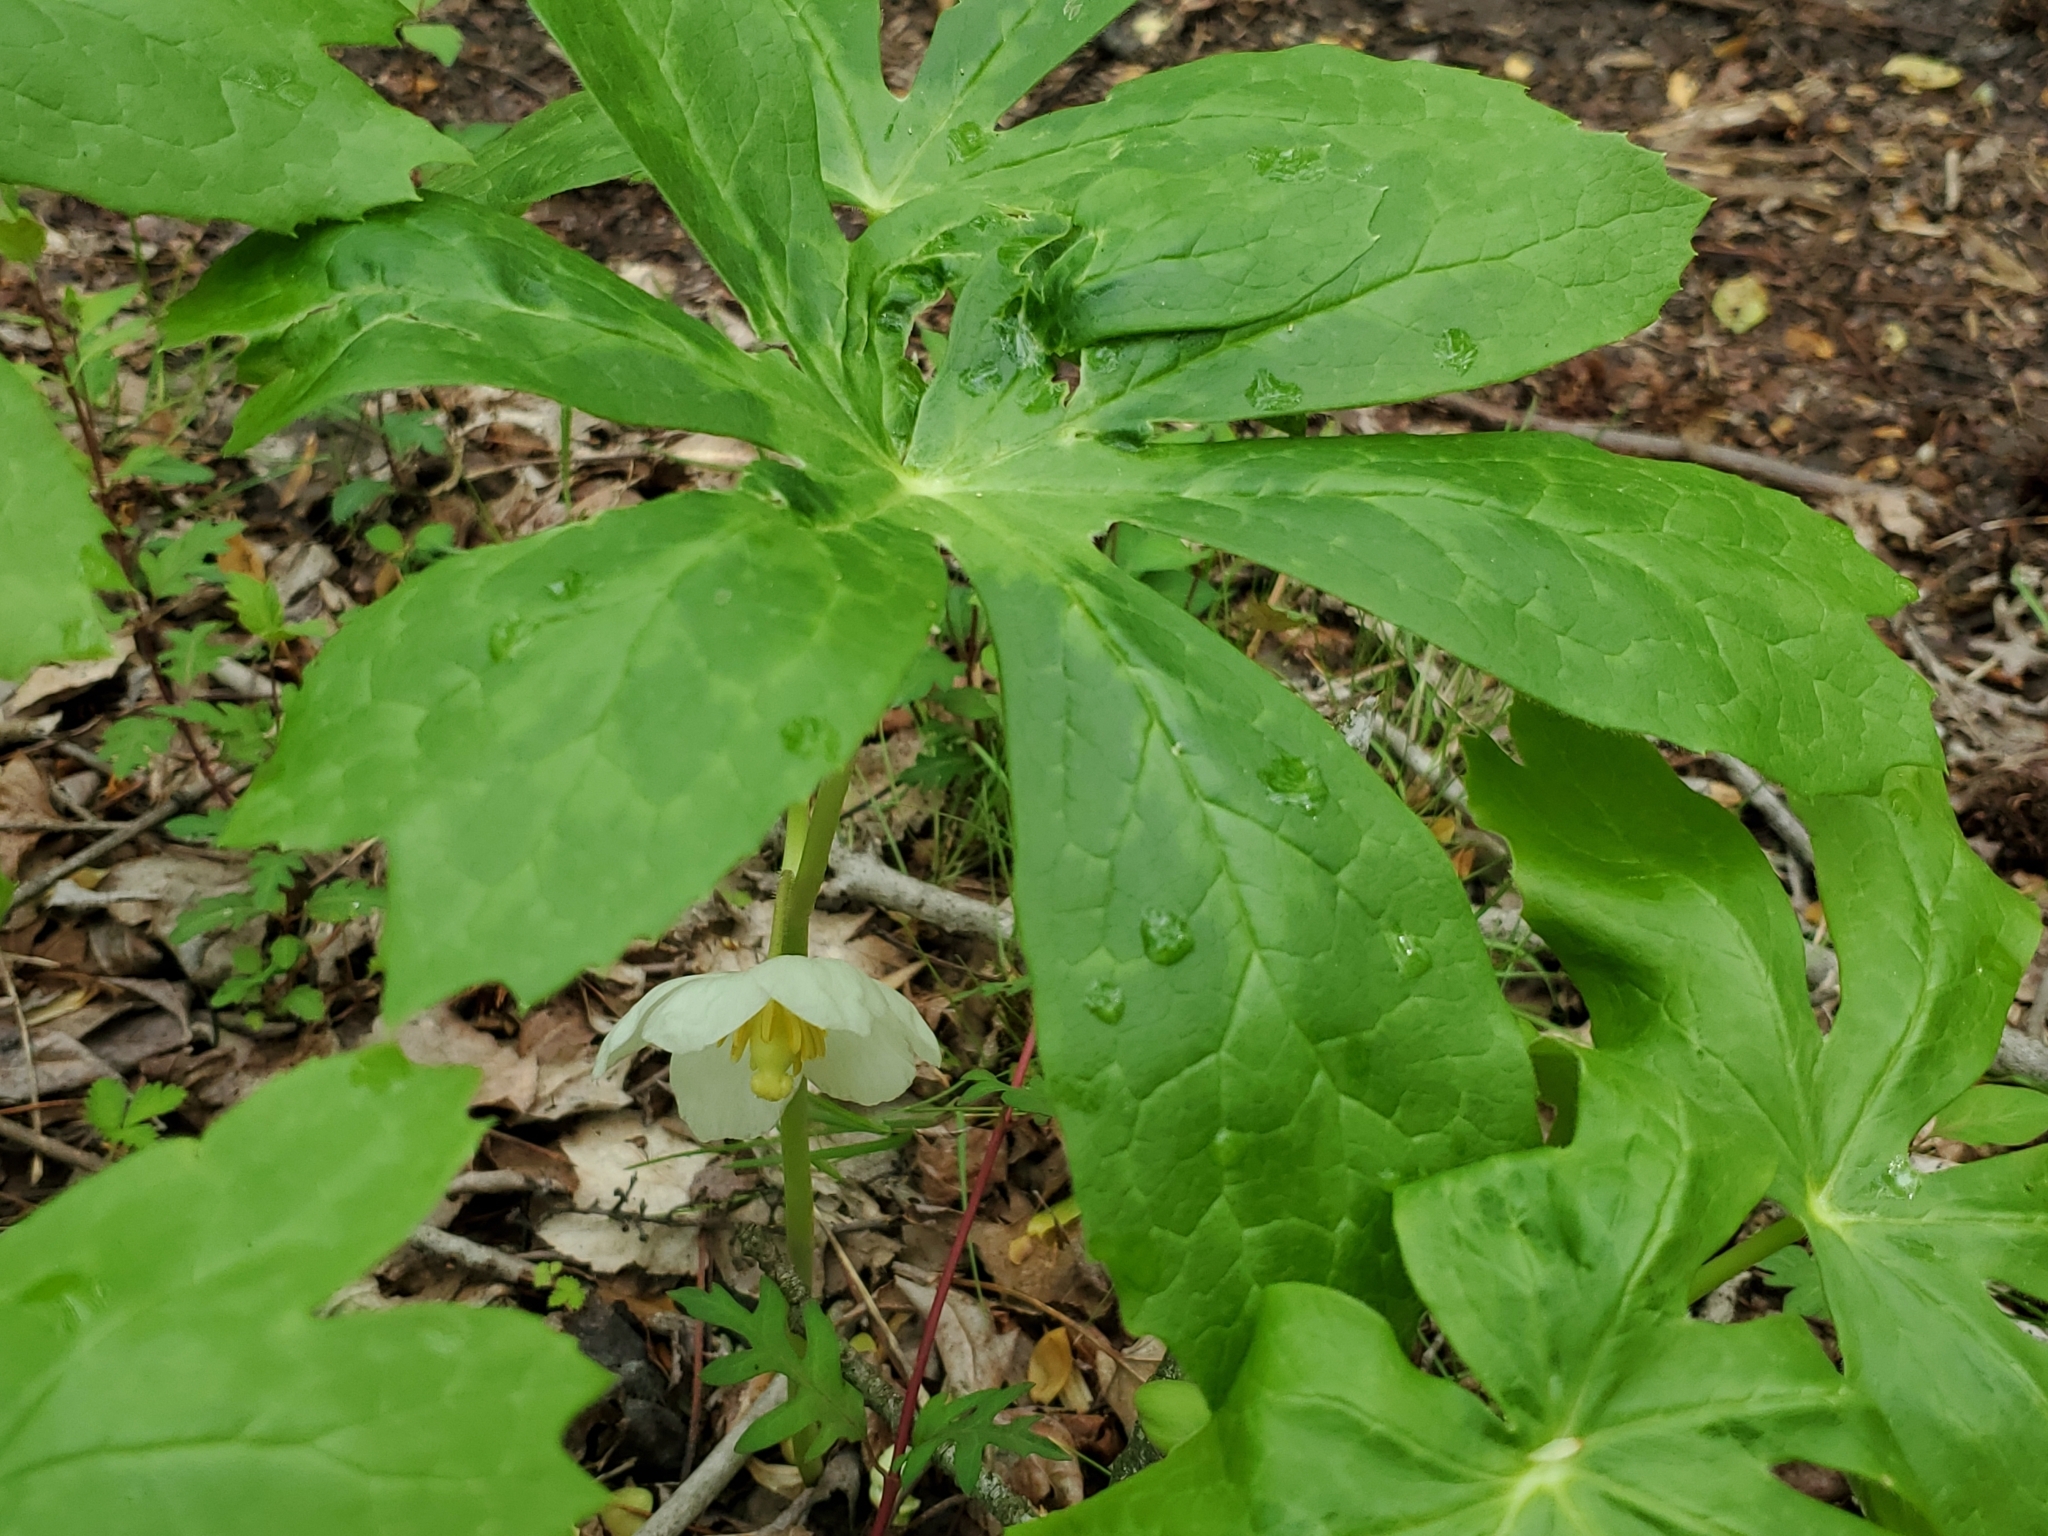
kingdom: Plantae
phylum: Tracheophyta
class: Magnoliopsida
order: Ranunculales
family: Berberidaceae
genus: Podophyllum
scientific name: Podophyllum peltatum
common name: Wild mandrake
